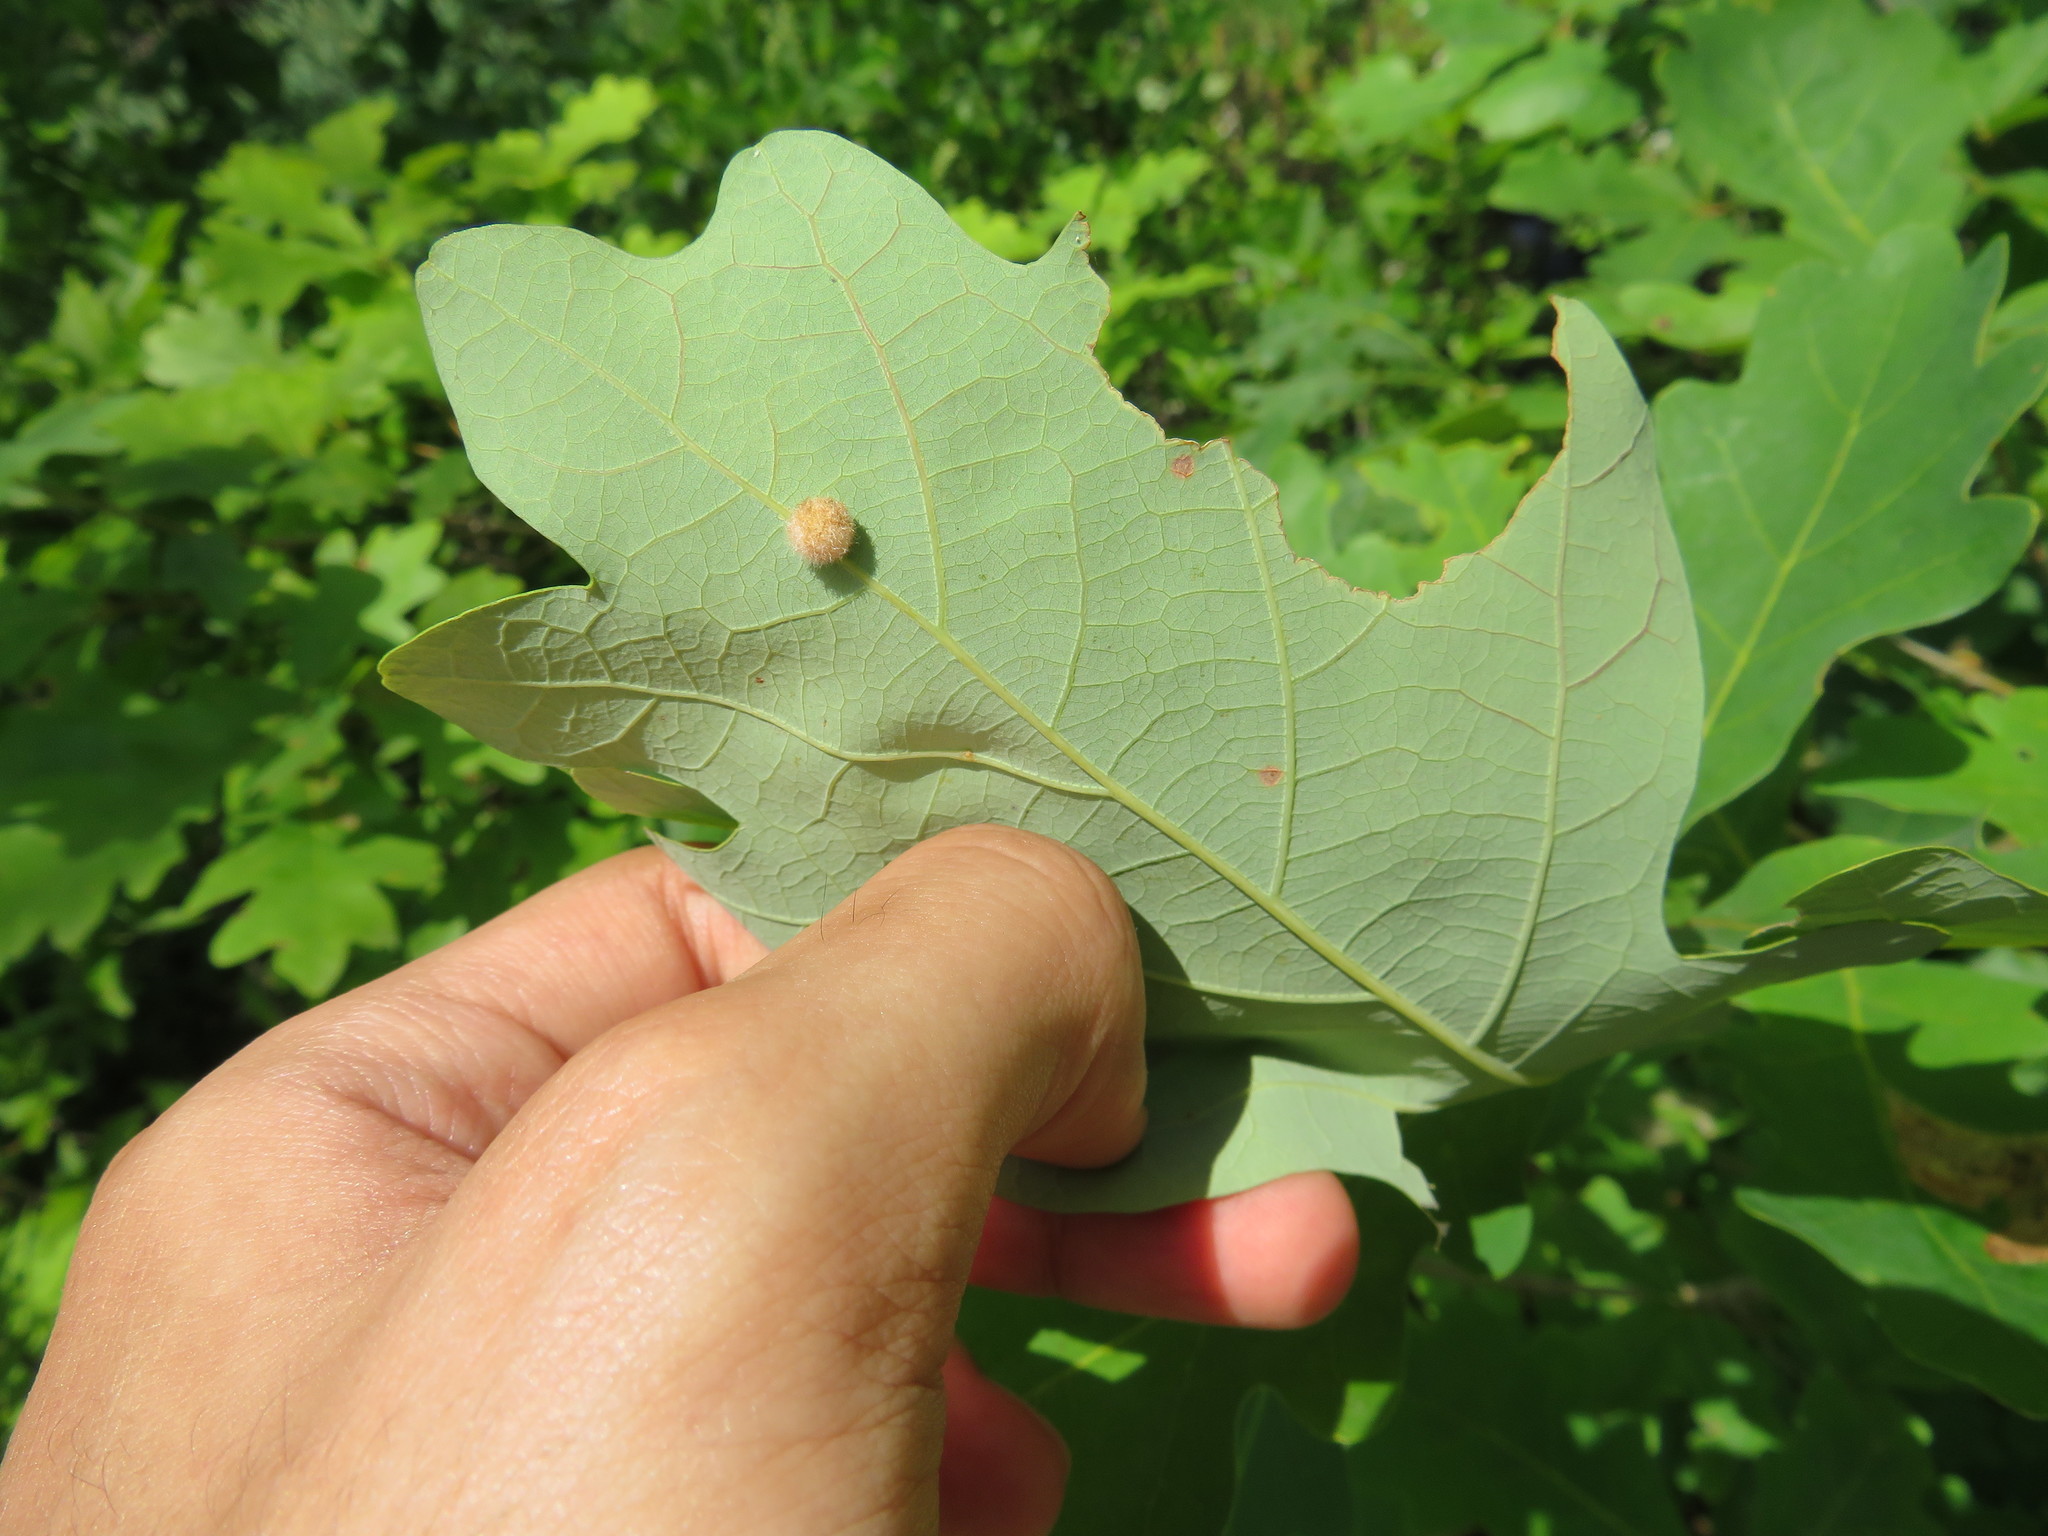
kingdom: Animalia
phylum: Arthropoda
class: Insecta
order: Hymenoptera
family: Cynipidae
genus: Philonix
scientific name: Philonix fulvicollis
